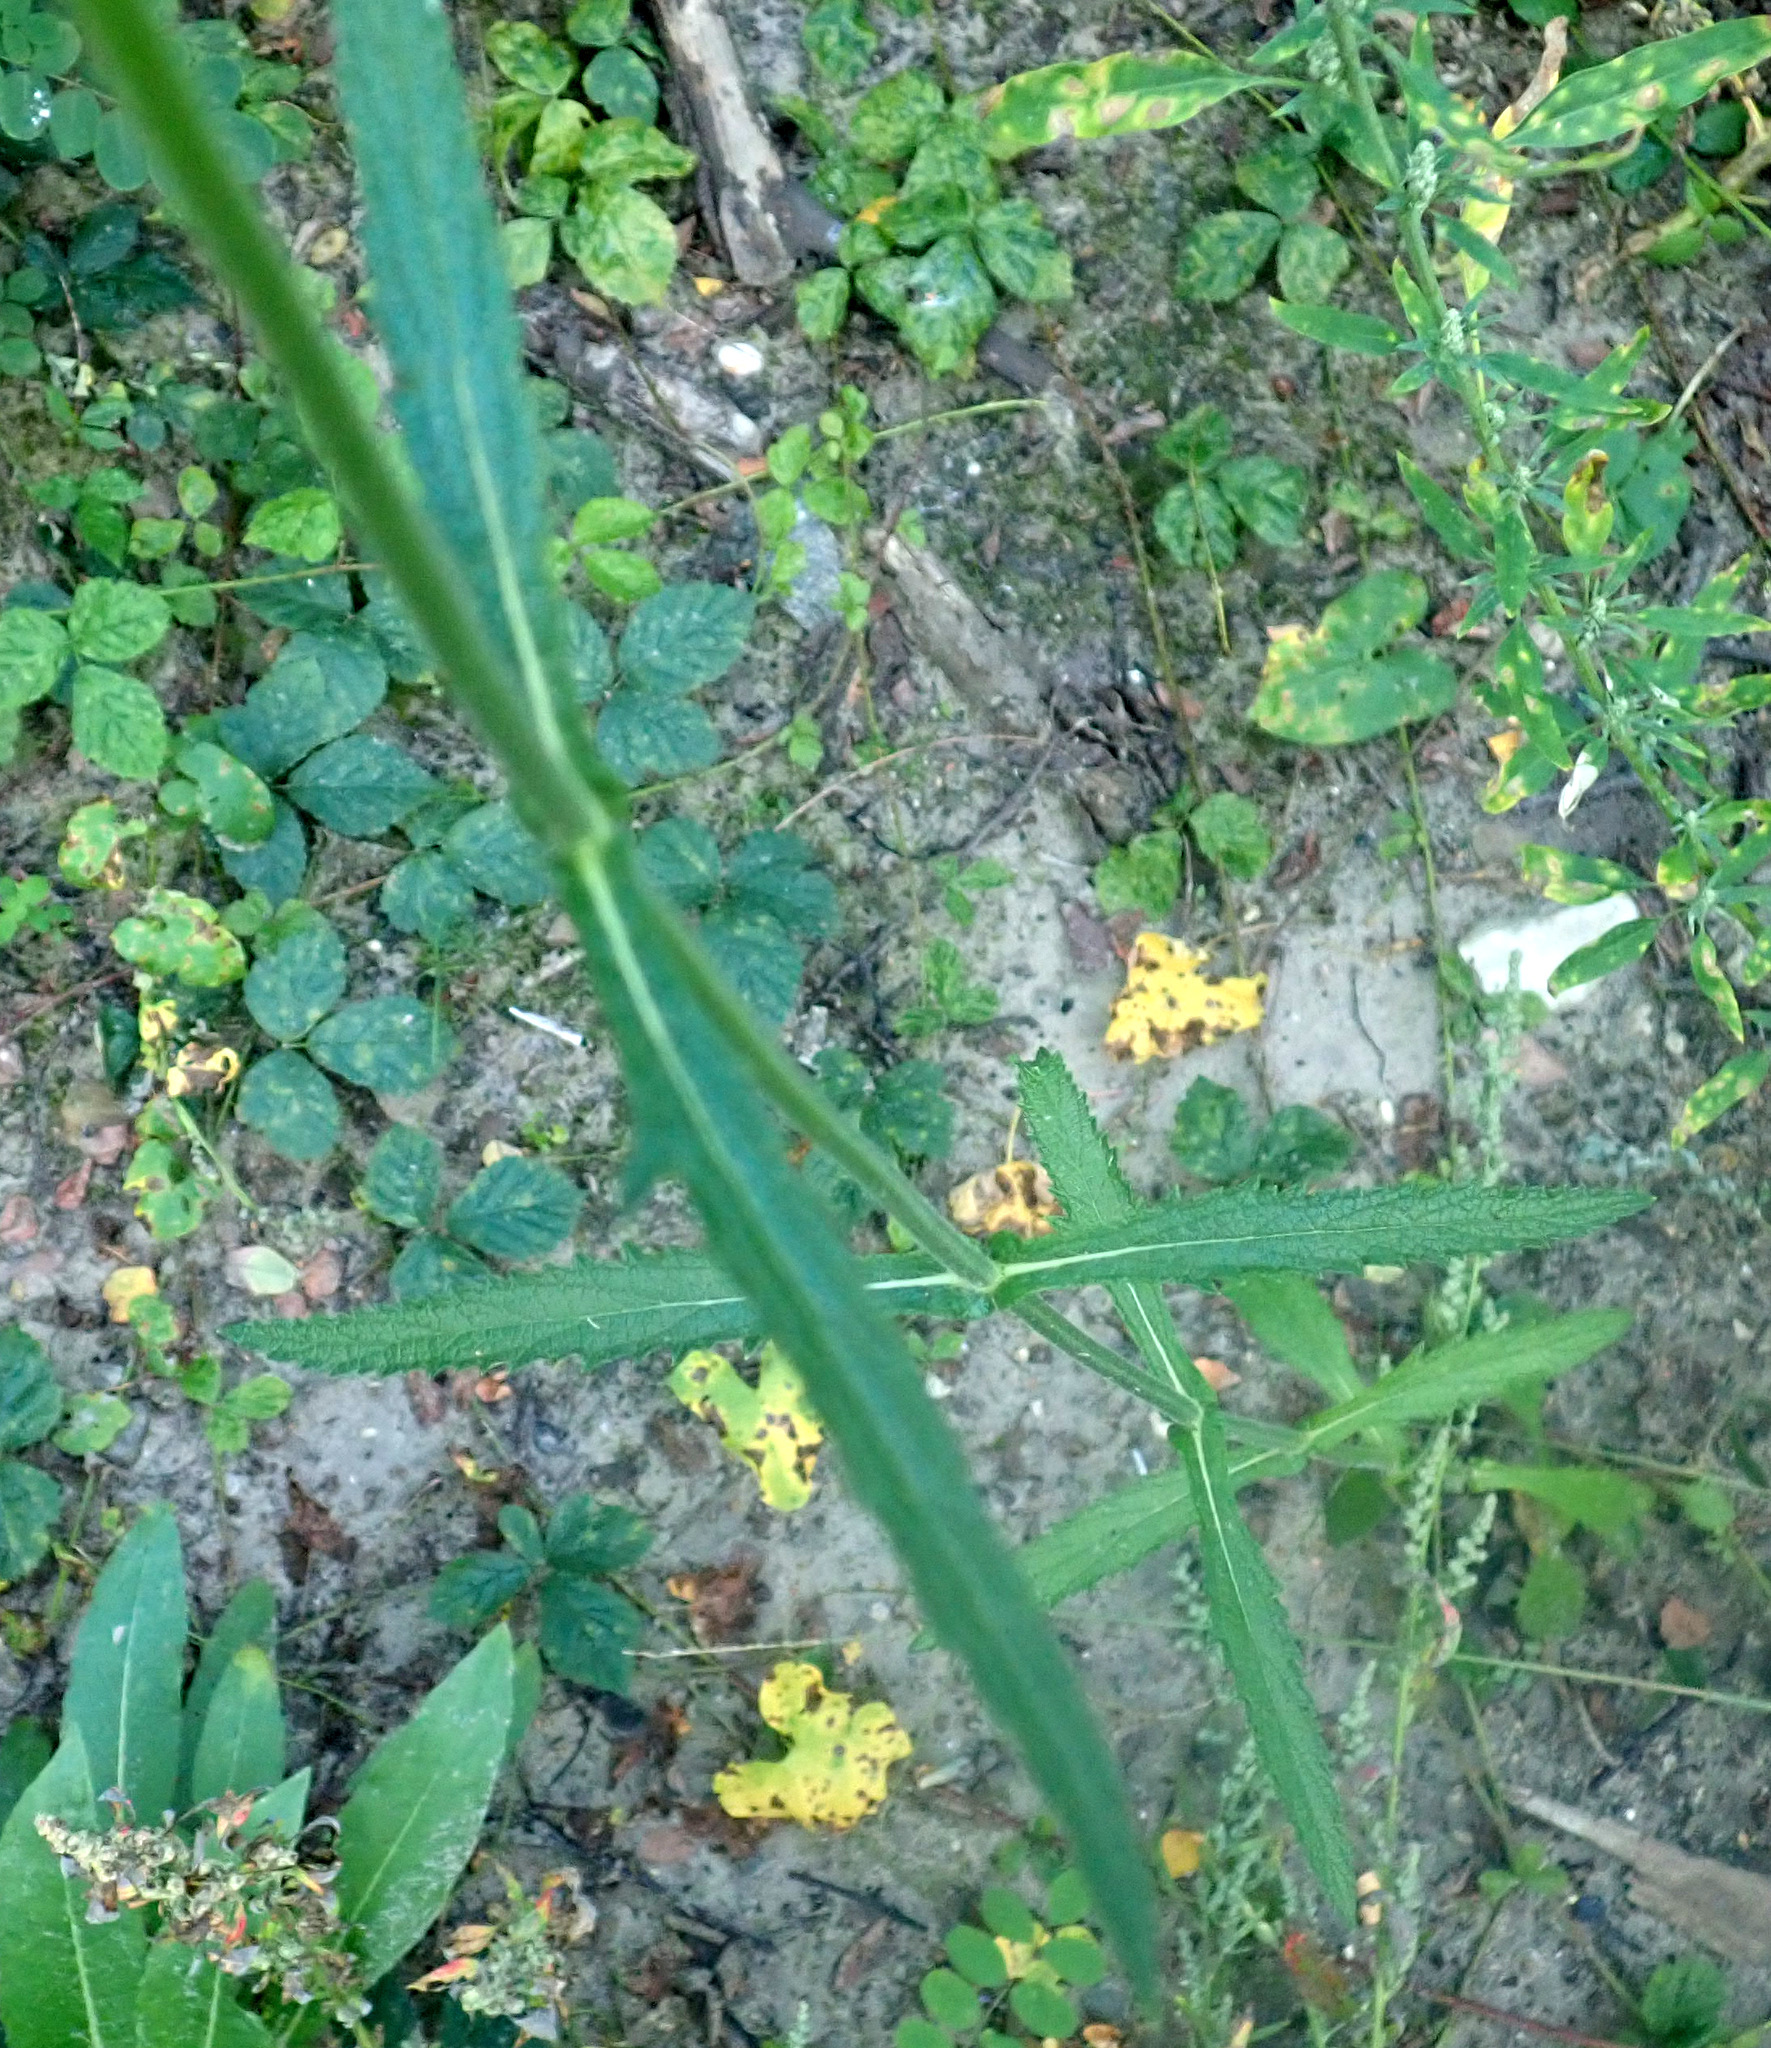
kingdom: Plantae
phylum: Tracheophyta
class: Magnoliopsida
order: Lamiales
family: Verbenaceae
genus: Verbena
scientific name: Verbena bonariensis
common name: Purpletop vervain
